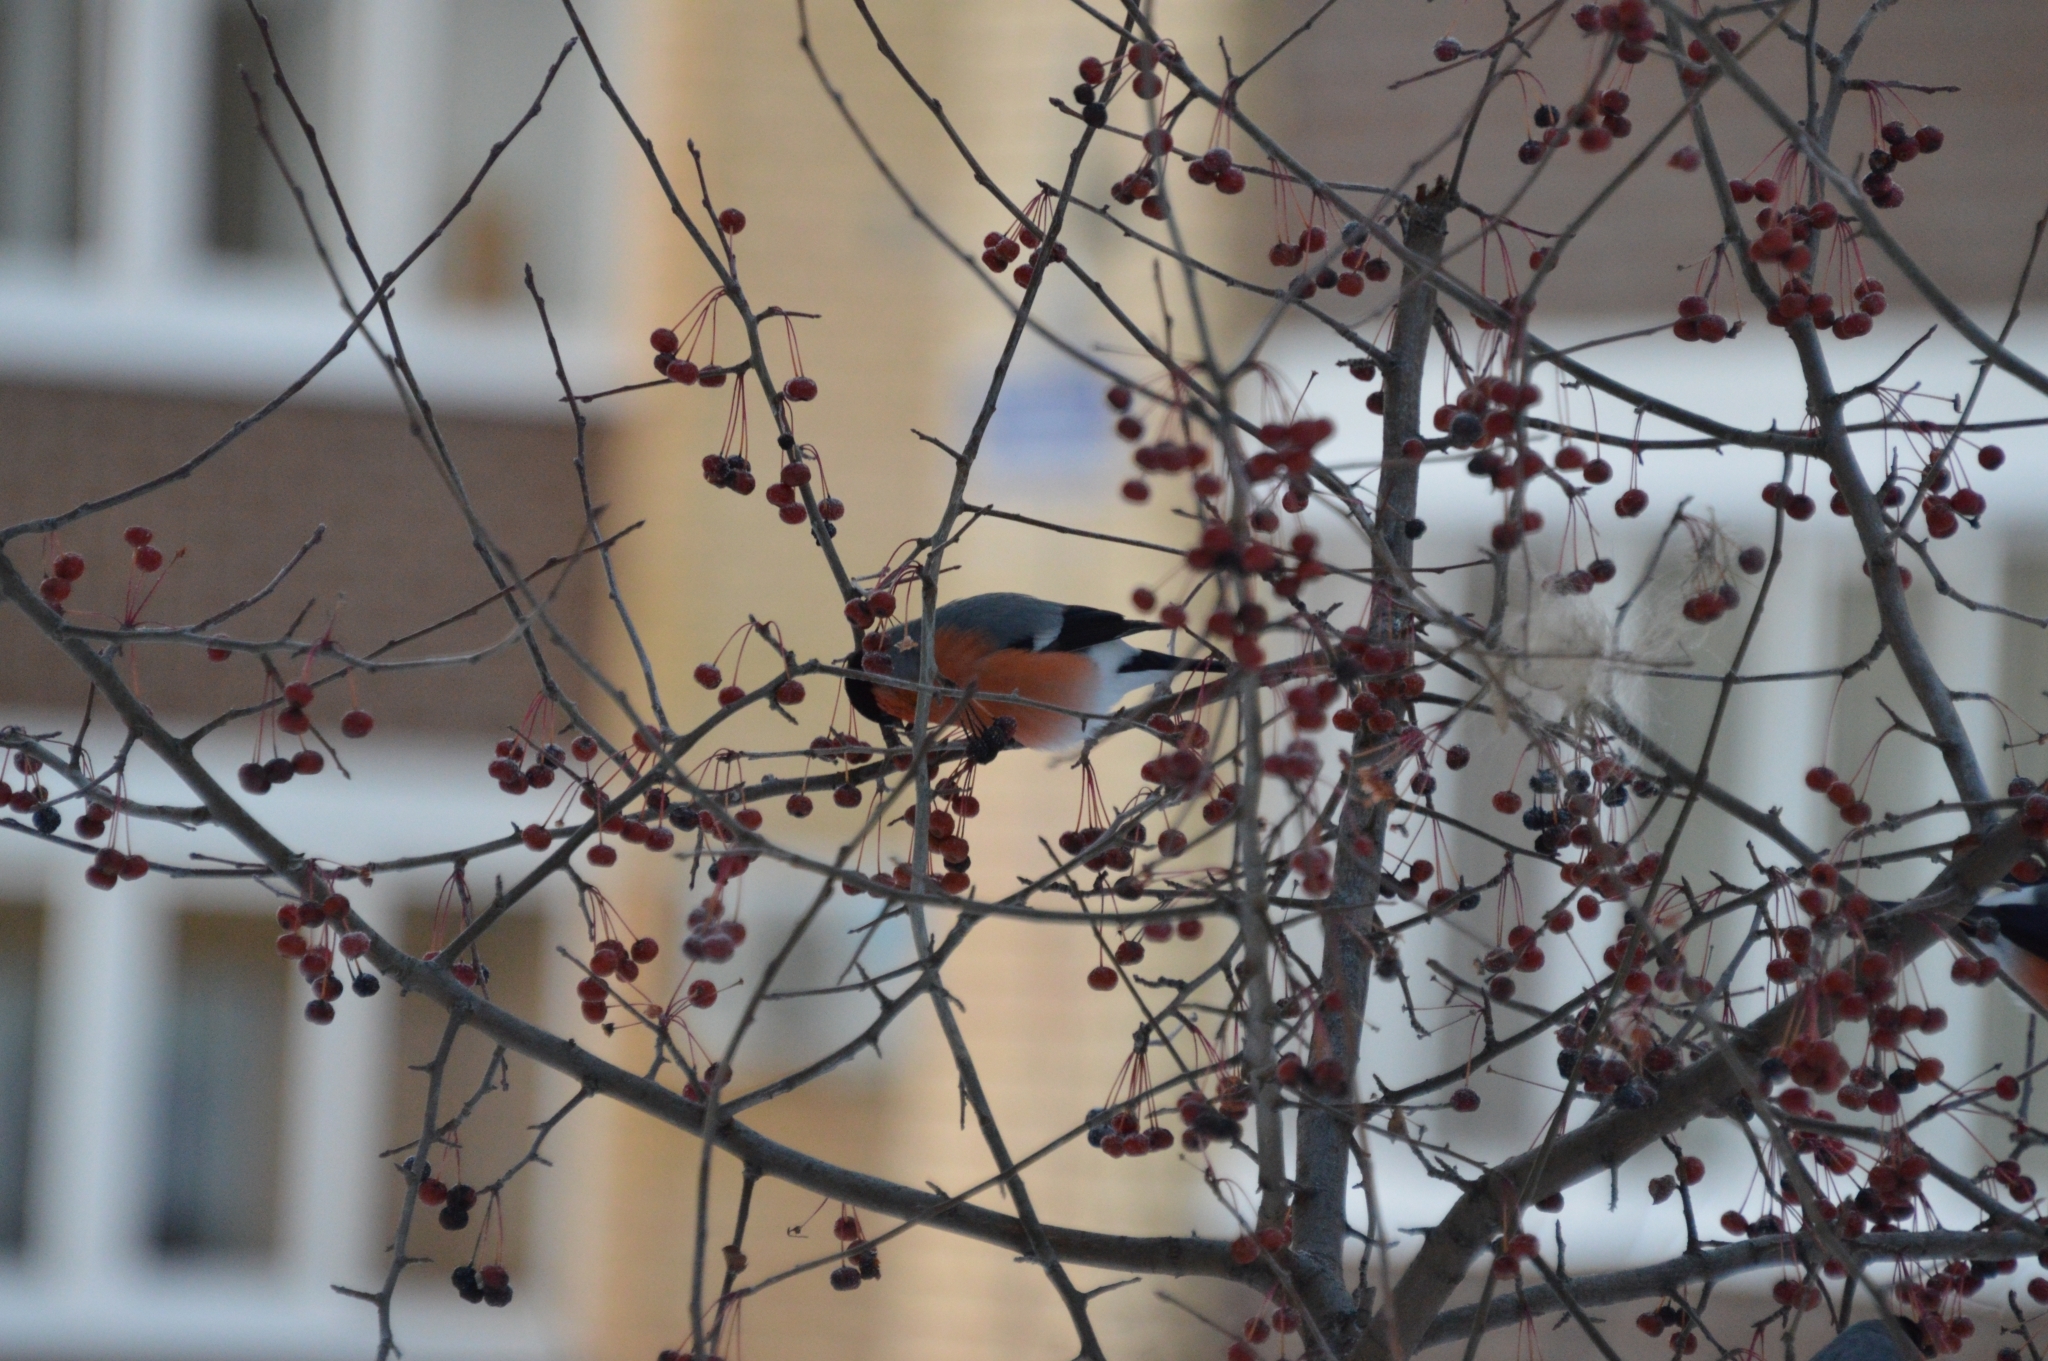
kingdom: Animalia
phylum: Chordata
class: Aves
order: Passeriformes
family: Fringillidae
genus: Pyrrhula
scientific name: Pyrrhula pyrrhula
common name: Eurasian bullfinch
